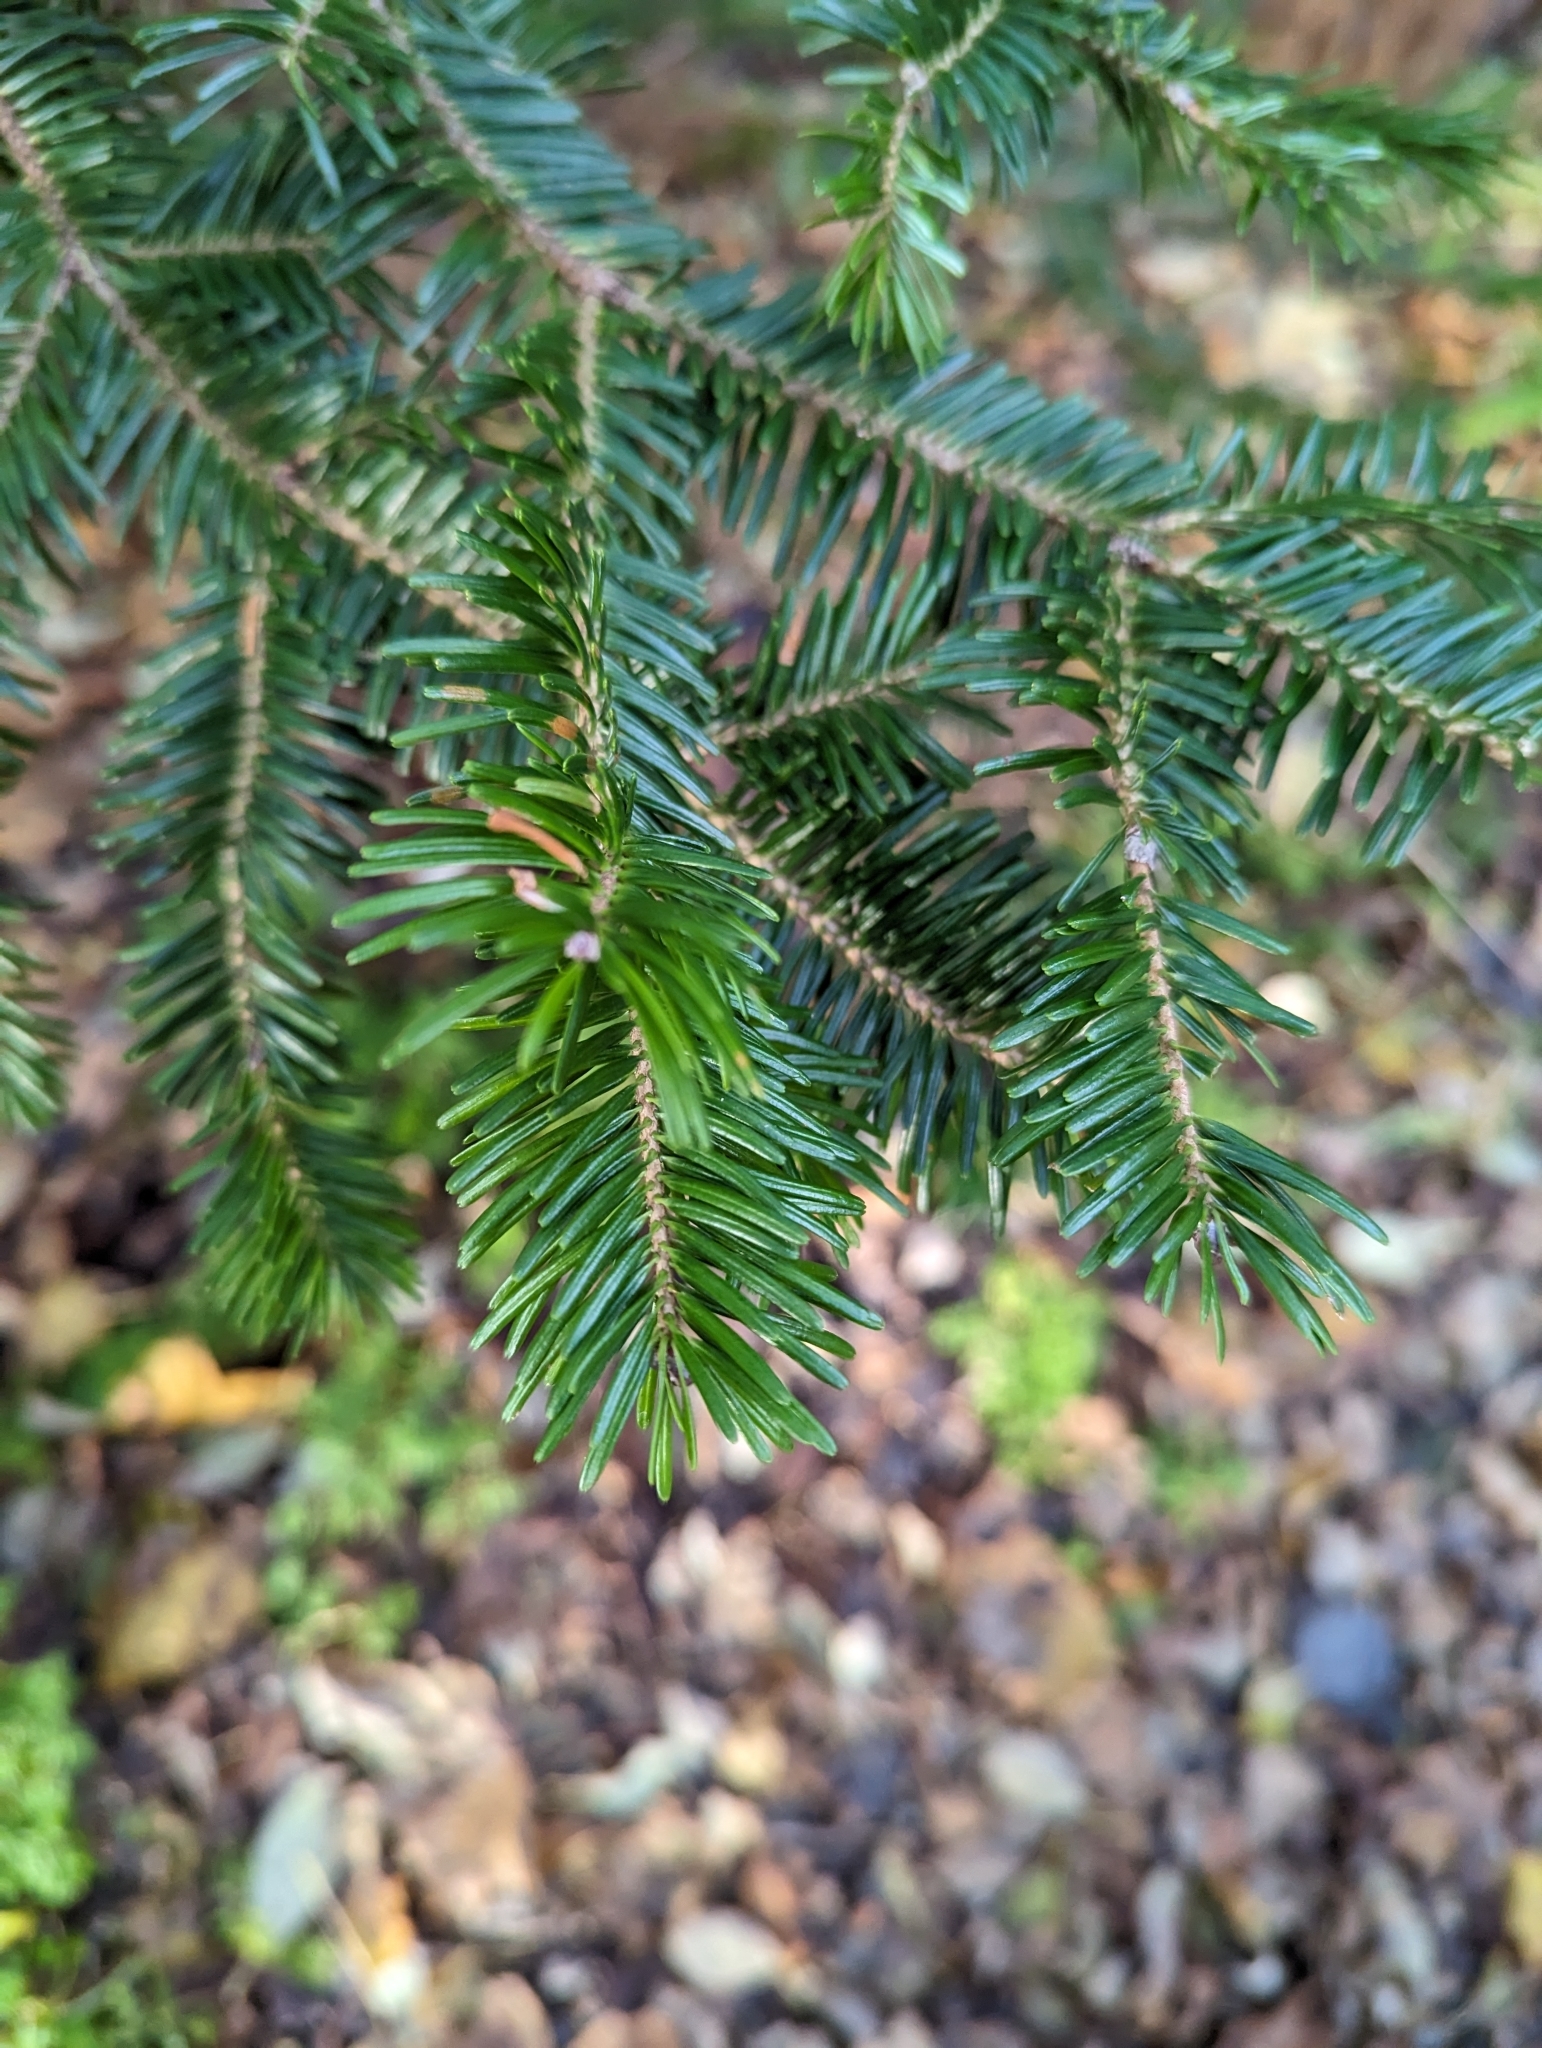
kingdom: Plantae
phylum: Tracheophyta
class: Pinopsida
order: Pinales
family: Pinaceae
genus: Abies
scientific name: Abies balsamea
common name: Balsam fir
